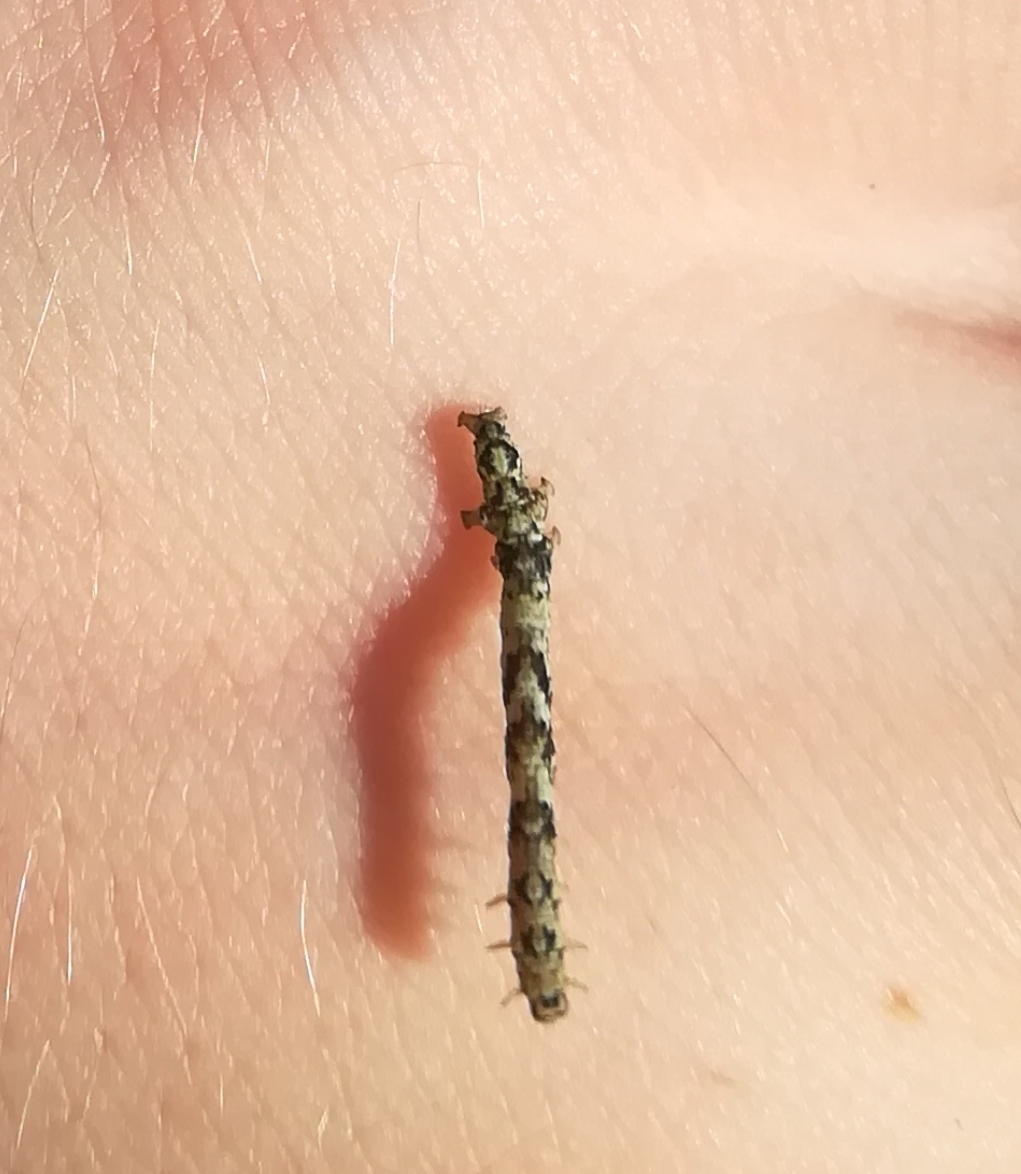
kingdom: Animalia
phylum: Arthropoda
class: Insecta
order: Lepidoptera
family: Erebidae
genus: Laspeyria
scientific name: Laspeyria flexula
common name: Beautiful hook-tip
